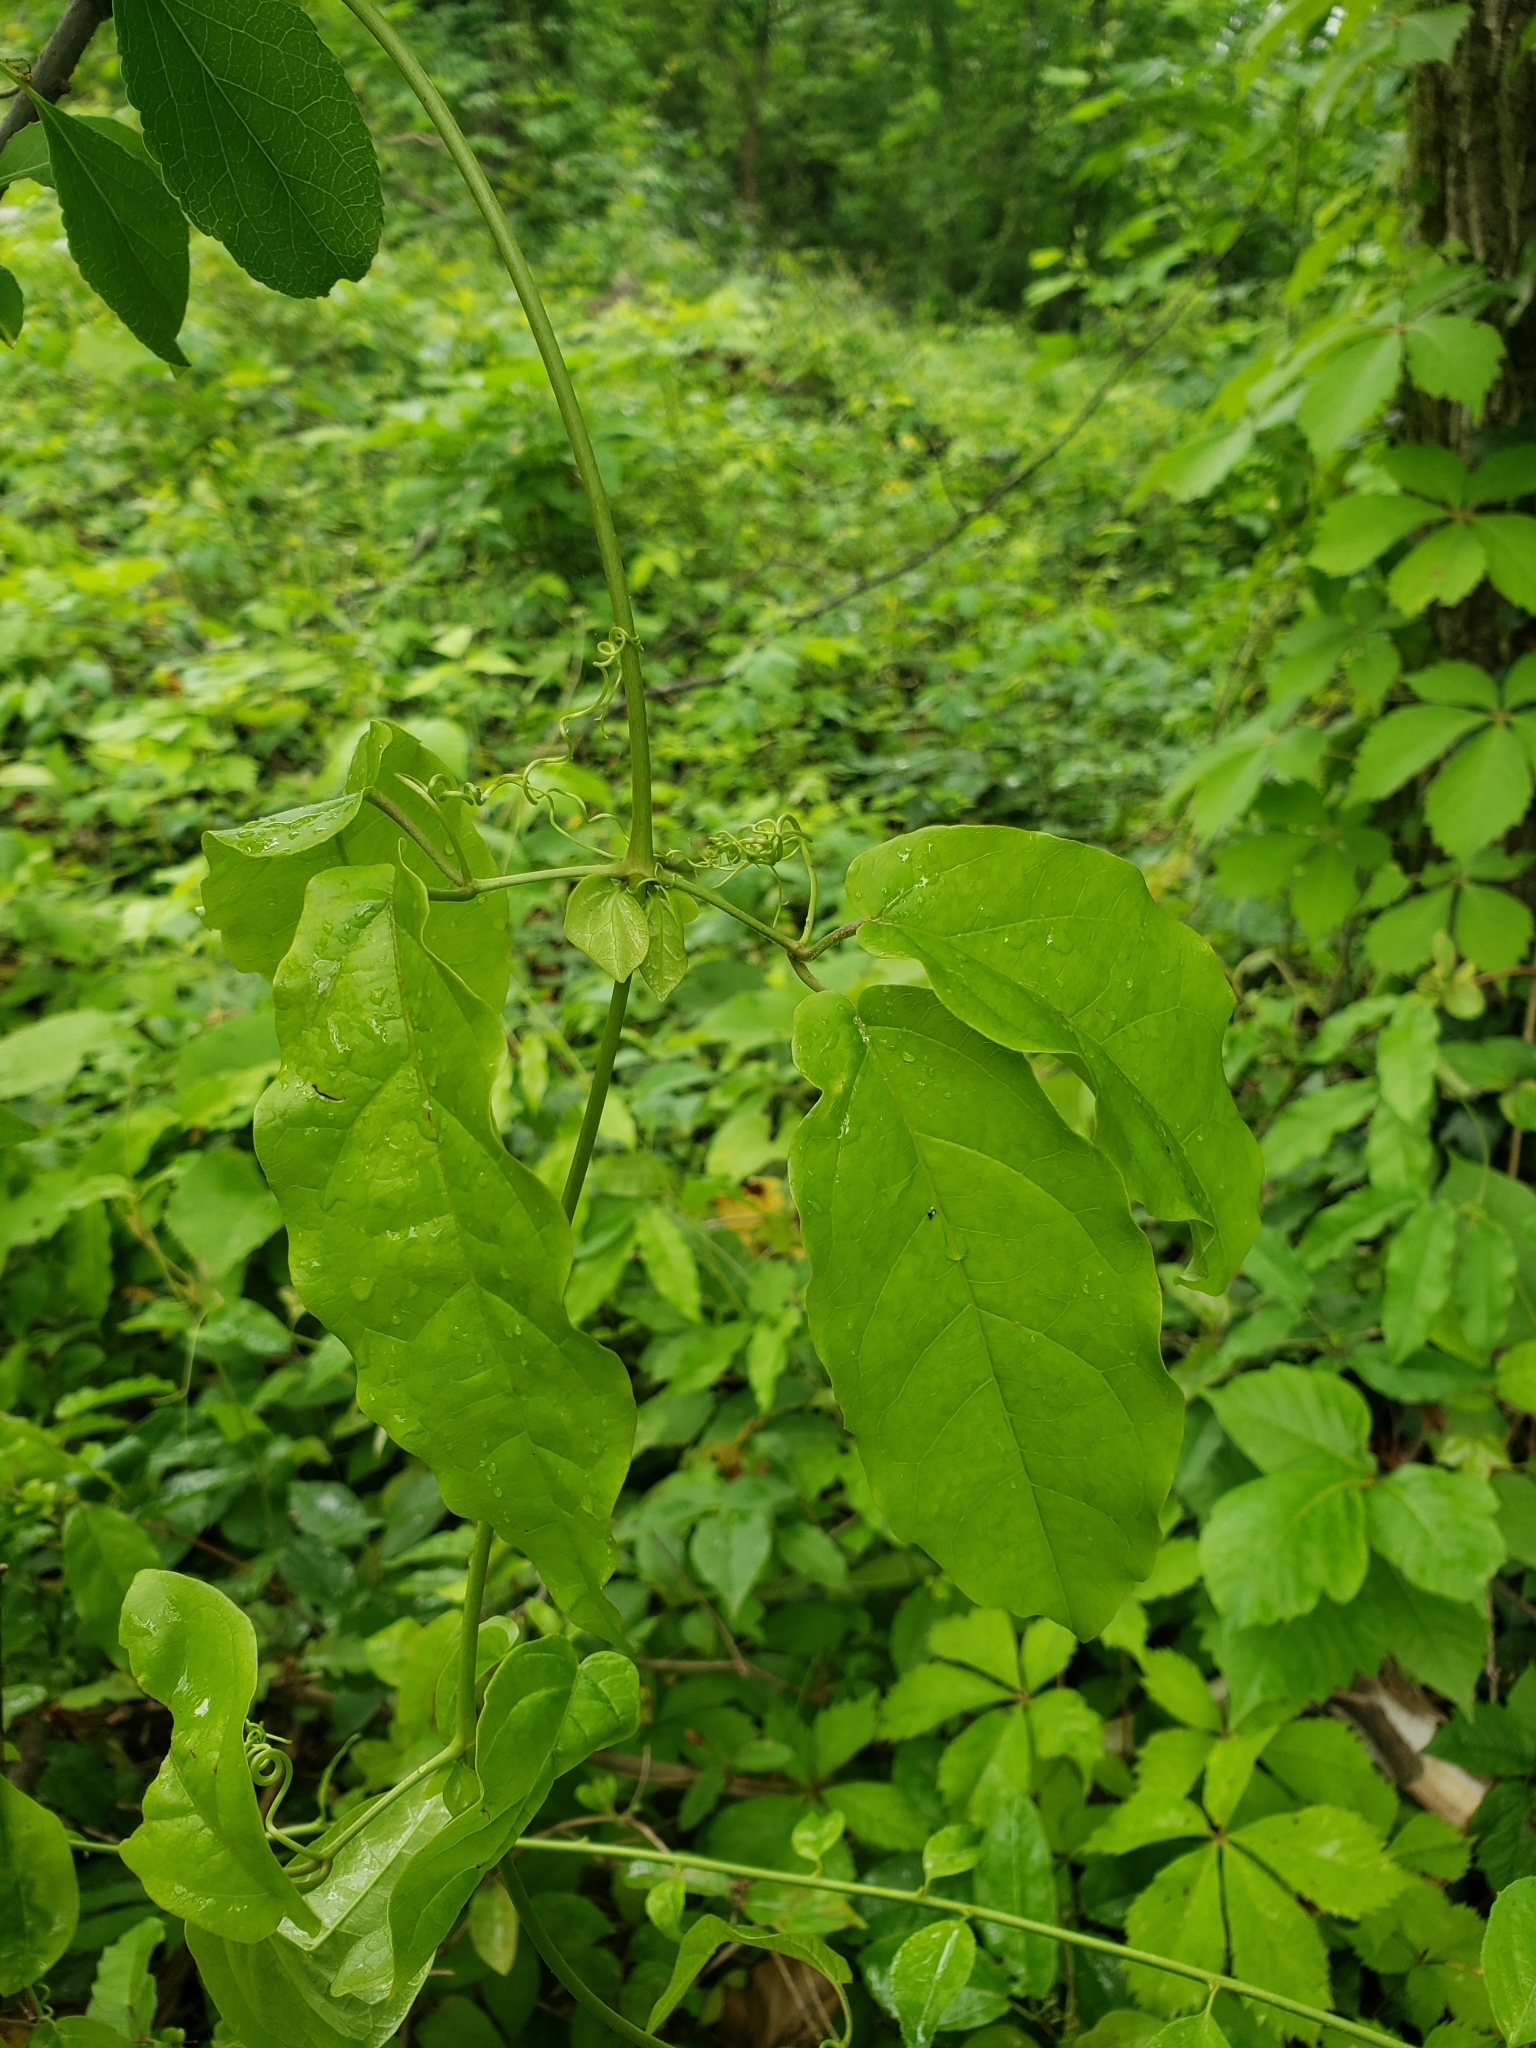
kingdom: Plantae
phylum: Tracheophyta
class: Magnoliopsida
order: Lamiales
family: Bignoniaceae
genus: Bignonia
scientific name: Bignonia capreolata
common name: Crossvine
